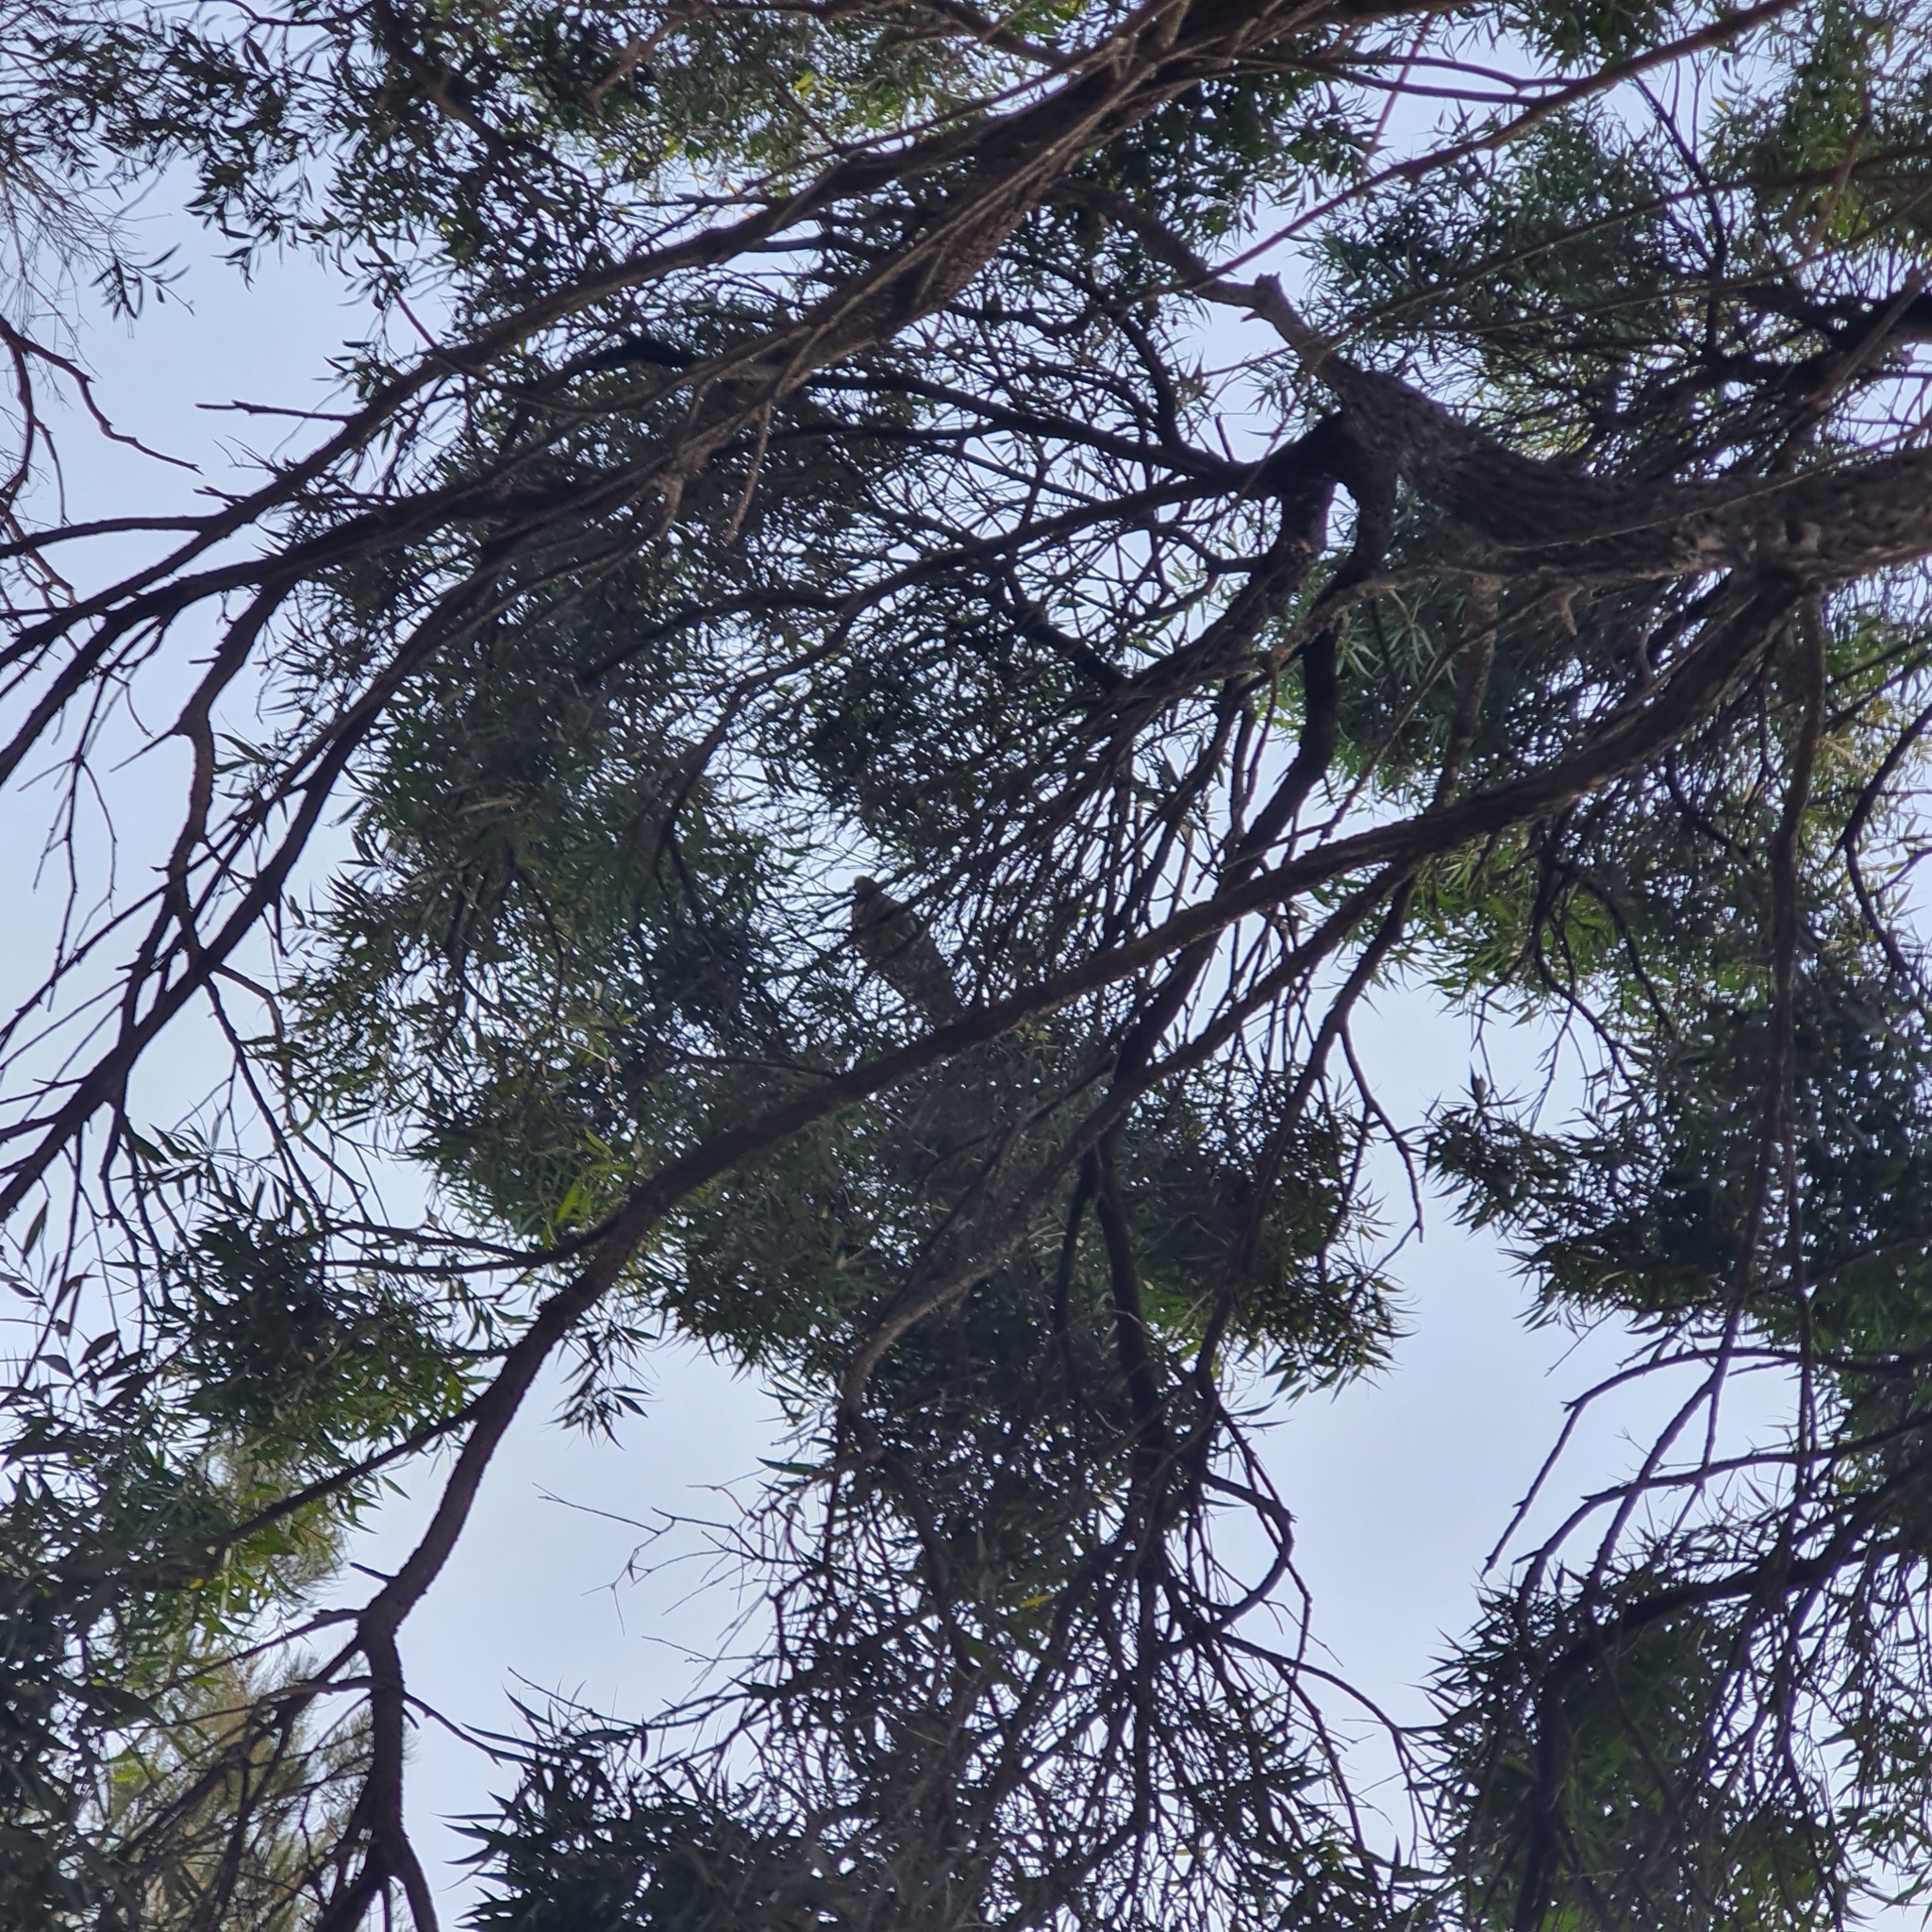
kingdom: Animalia
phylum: Chordata
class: Aves
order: Columbiformes
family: Columbidae
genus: Phaps
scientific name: Phaps chalcoptera
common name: Common bronzewing
